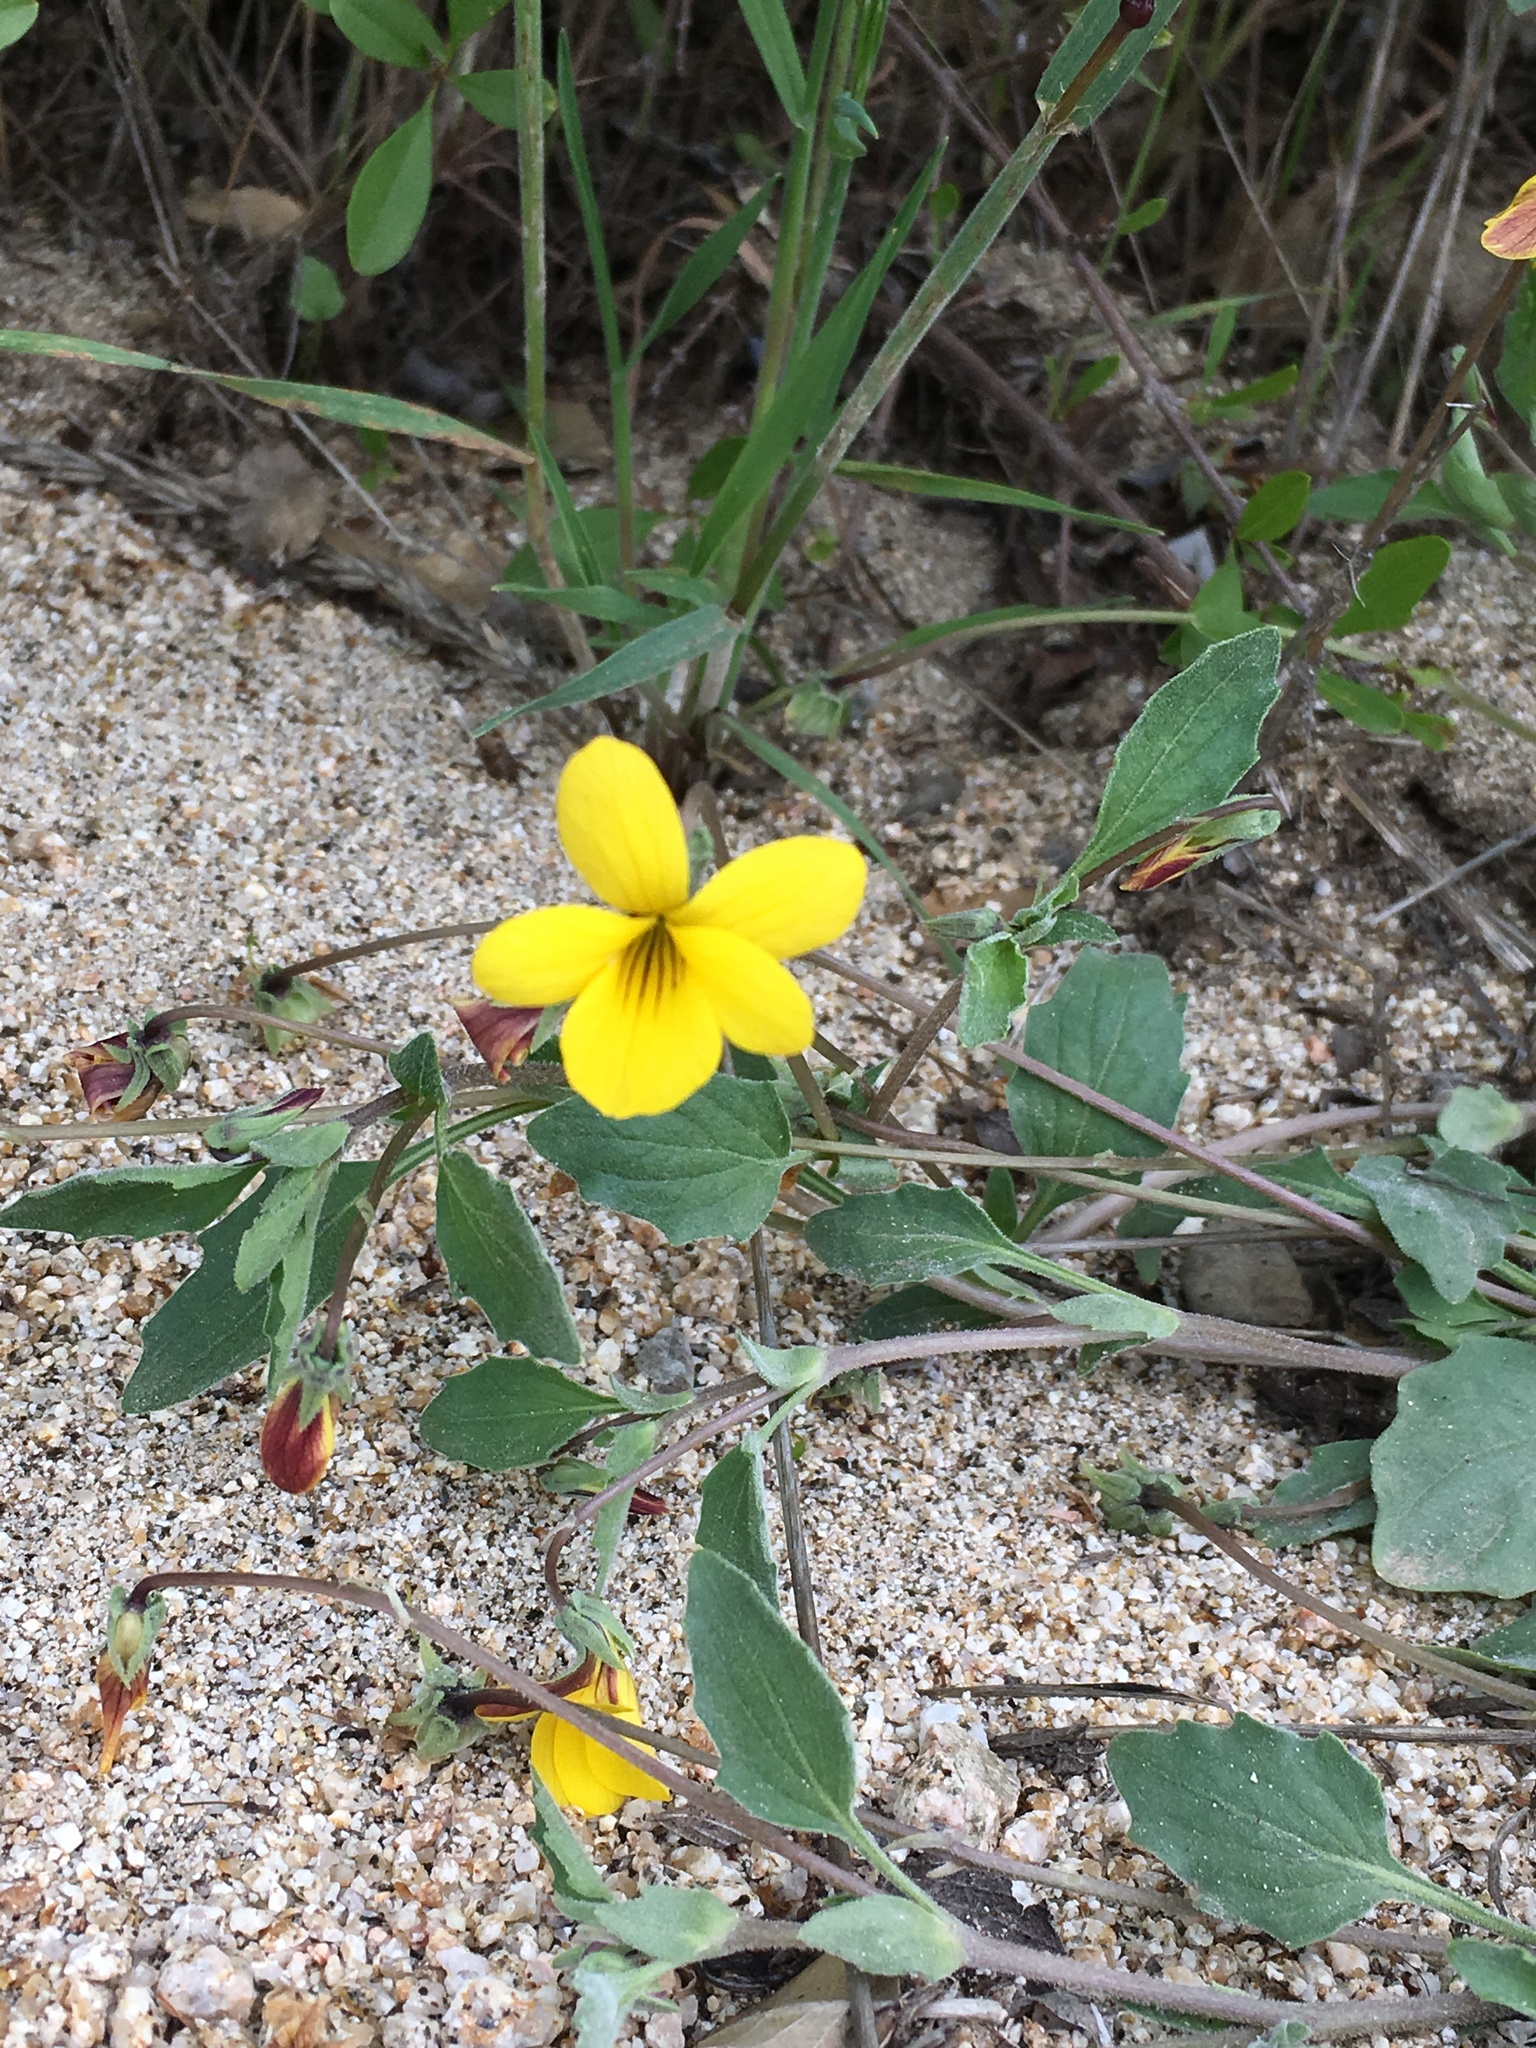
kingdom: Plantae
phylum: Tracheophyta
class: Magnoliopsida
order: Malpighiales
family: Violaceae
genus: Viola
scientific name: Viola purpurea
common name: Pine violet
